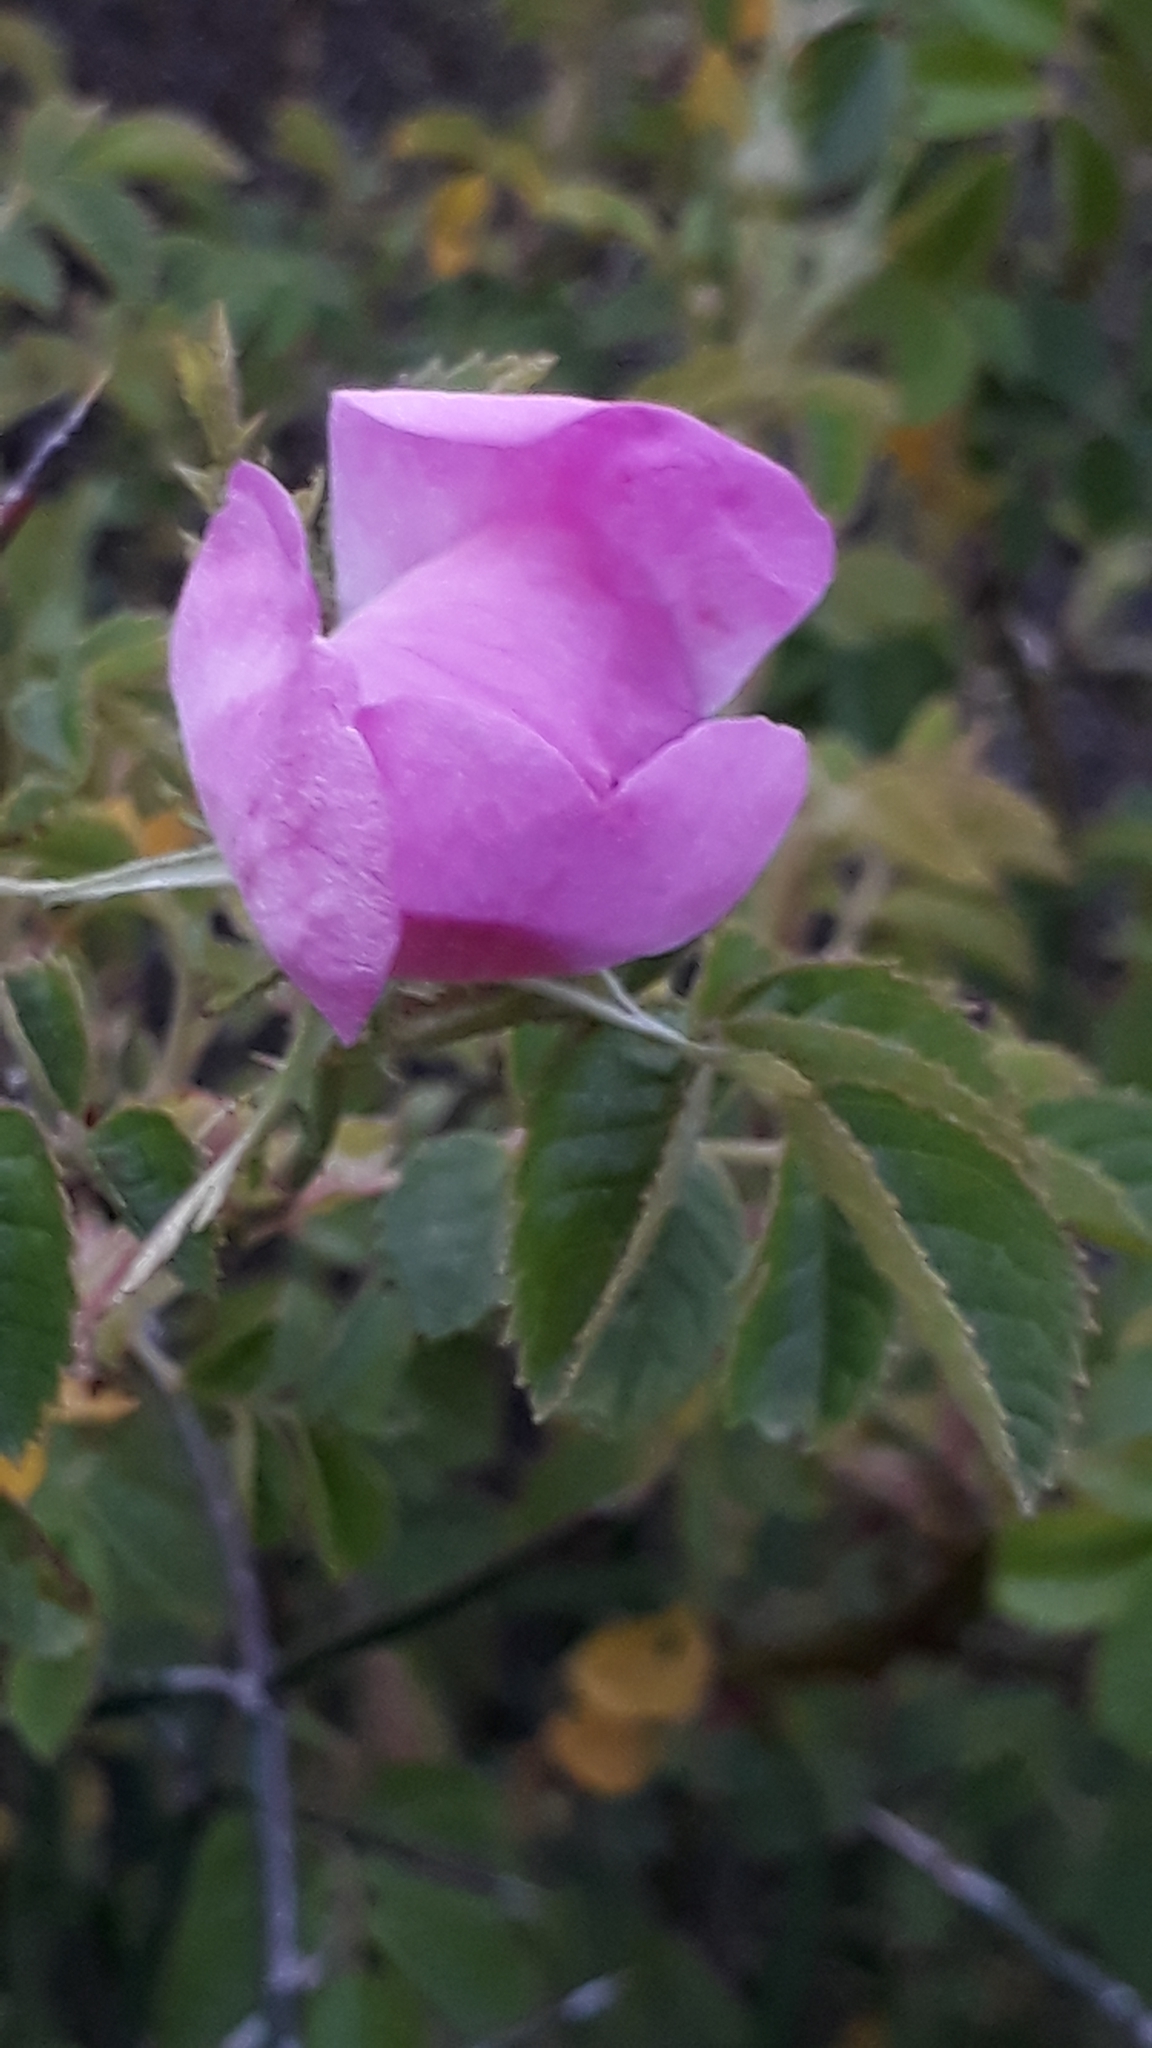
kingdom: Plantae
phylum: Tracheophyta
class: Magnoliopsida
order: Rosales
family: Rosaceae
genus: Rosa
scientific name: Rosa rubiginosa
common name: Sweet-briar
